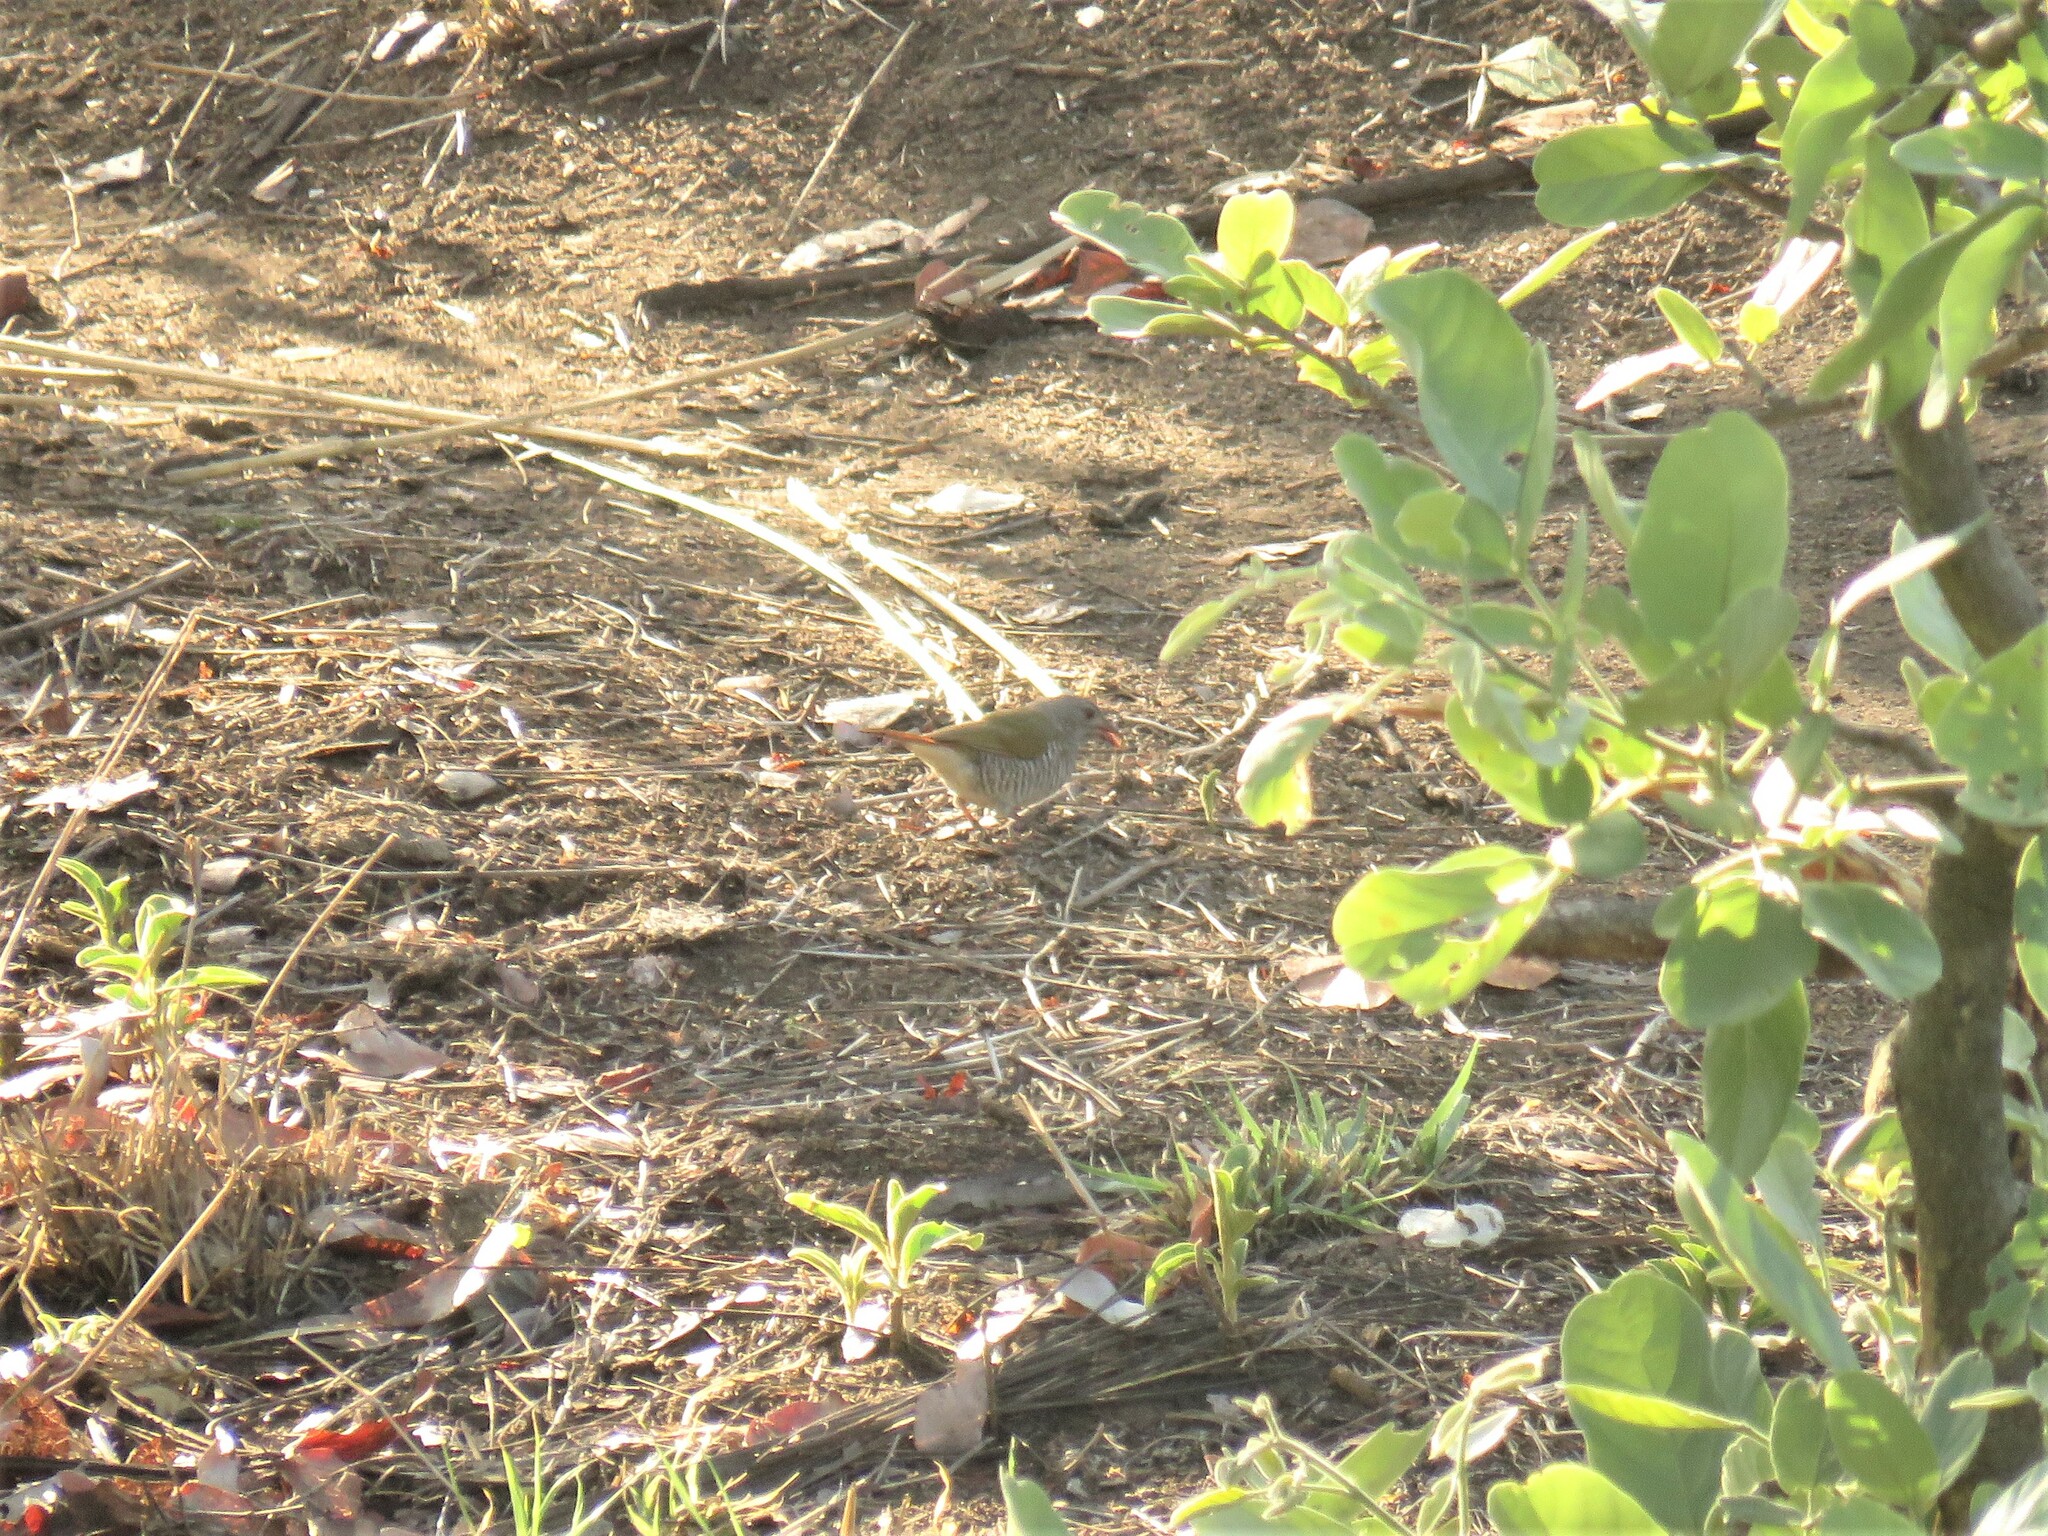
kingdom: Animalia
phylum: Chordata
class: Aves
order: Passeriformes
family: Estrildidae
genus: Pytilia
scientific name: Pytilia melba
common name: Green-winged pytilia
